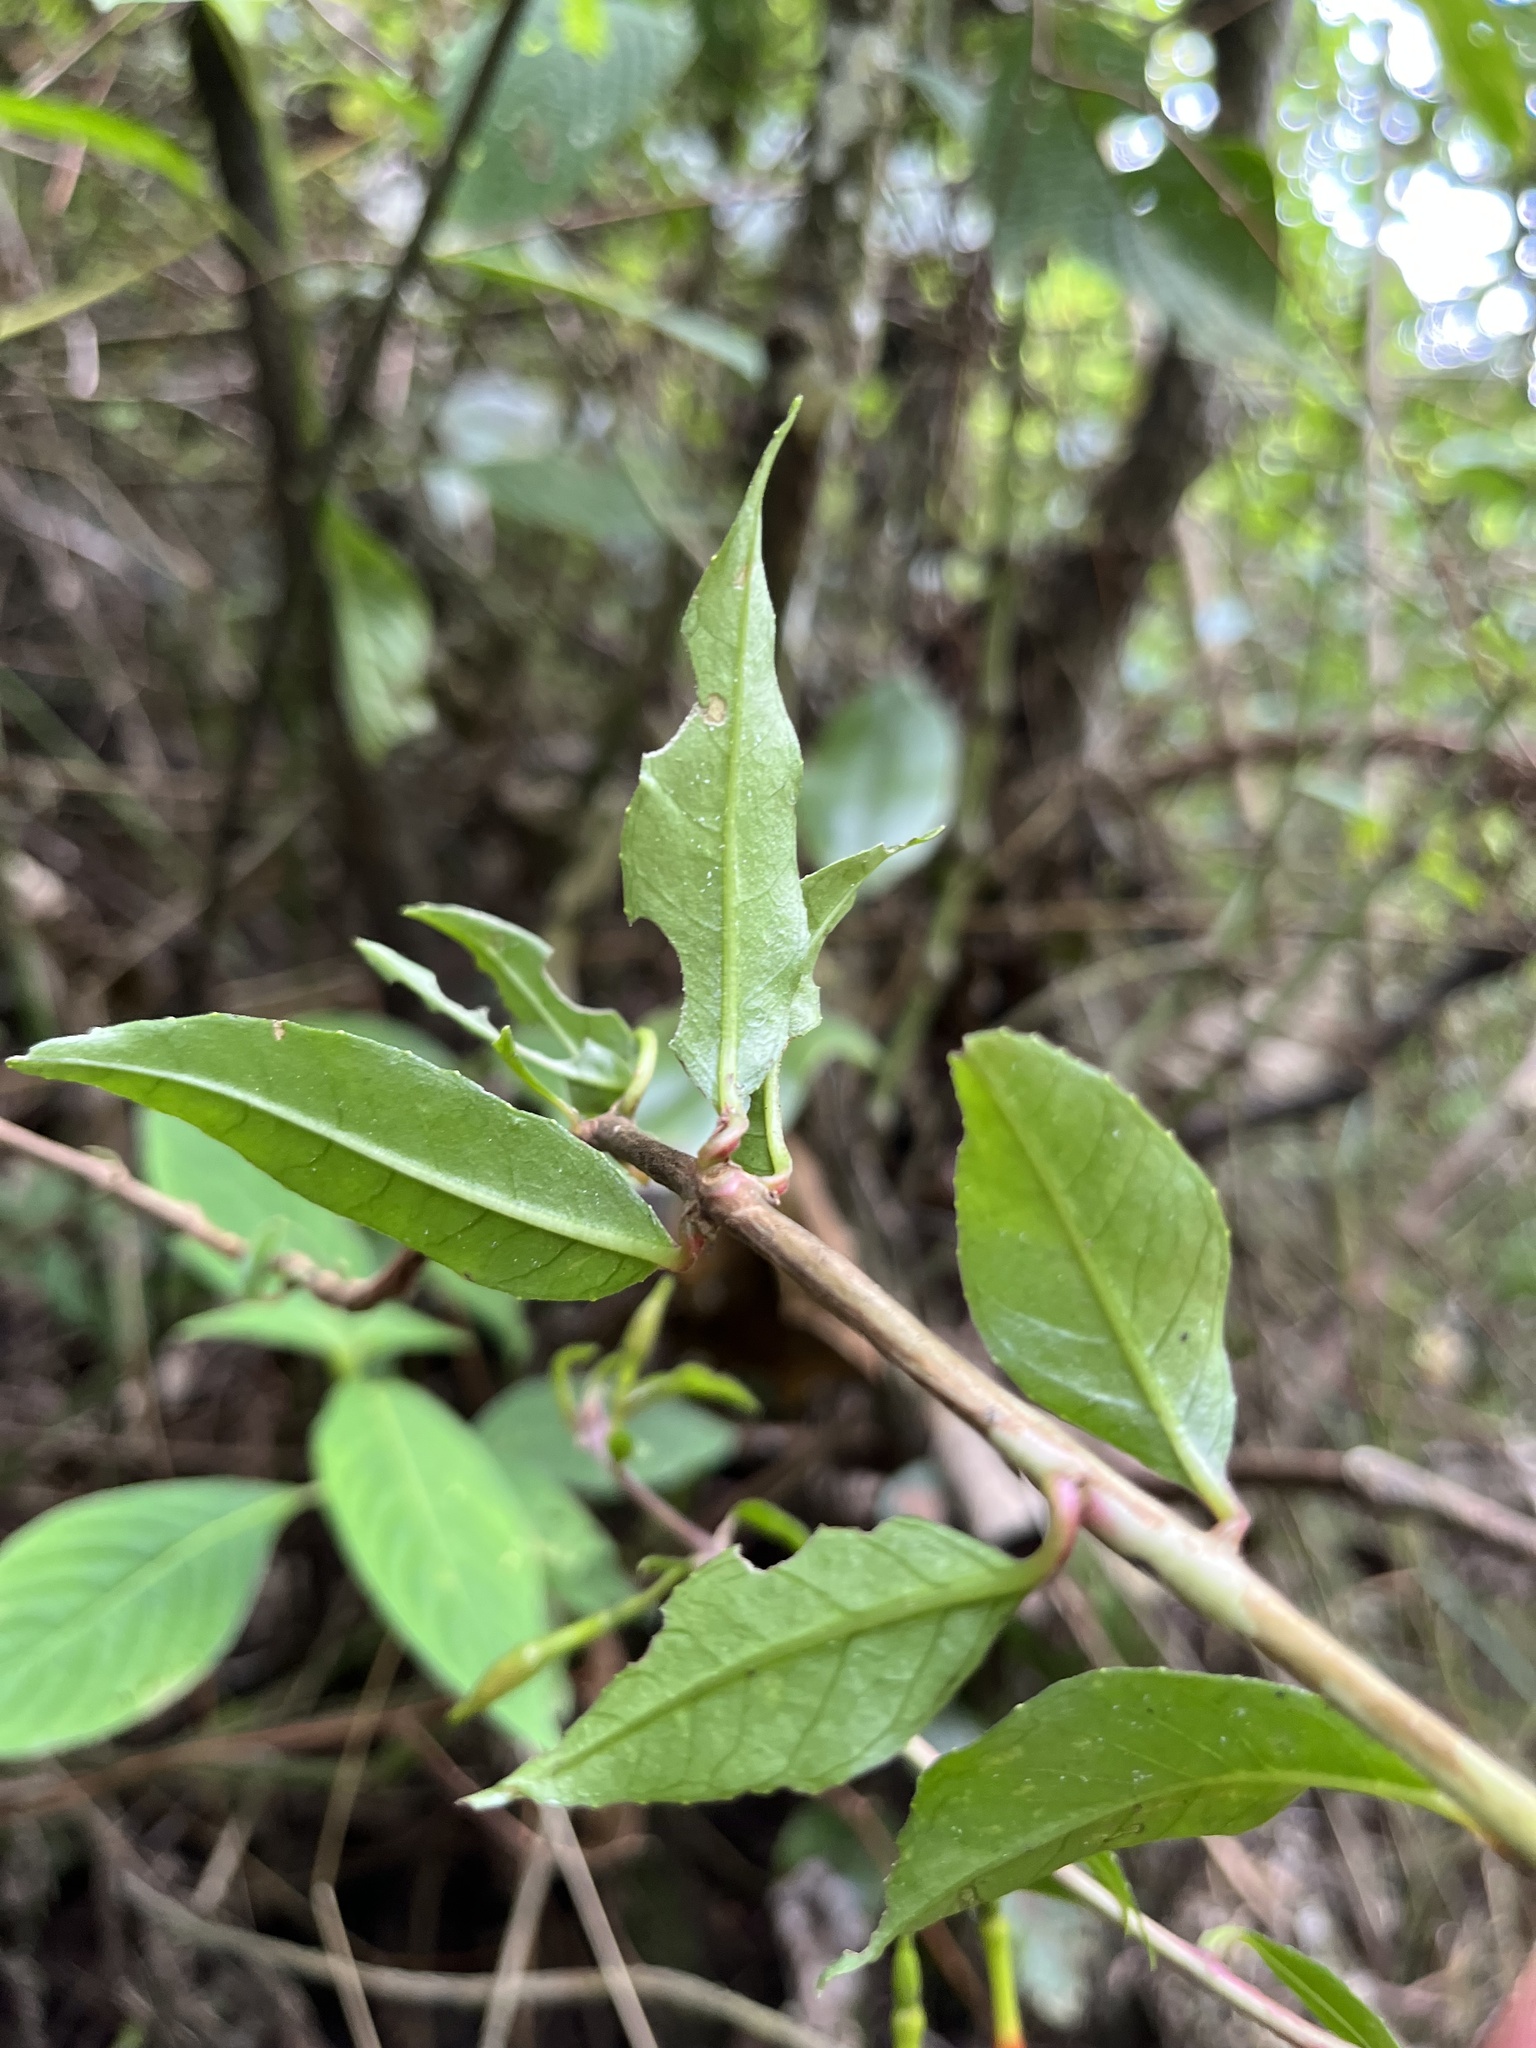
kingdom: Plantae
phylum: Tracheophyta
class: Magnoliopsida
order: Myrtales
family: Onagraceae
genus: Fuchsia
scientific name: Fuchsia venusta
